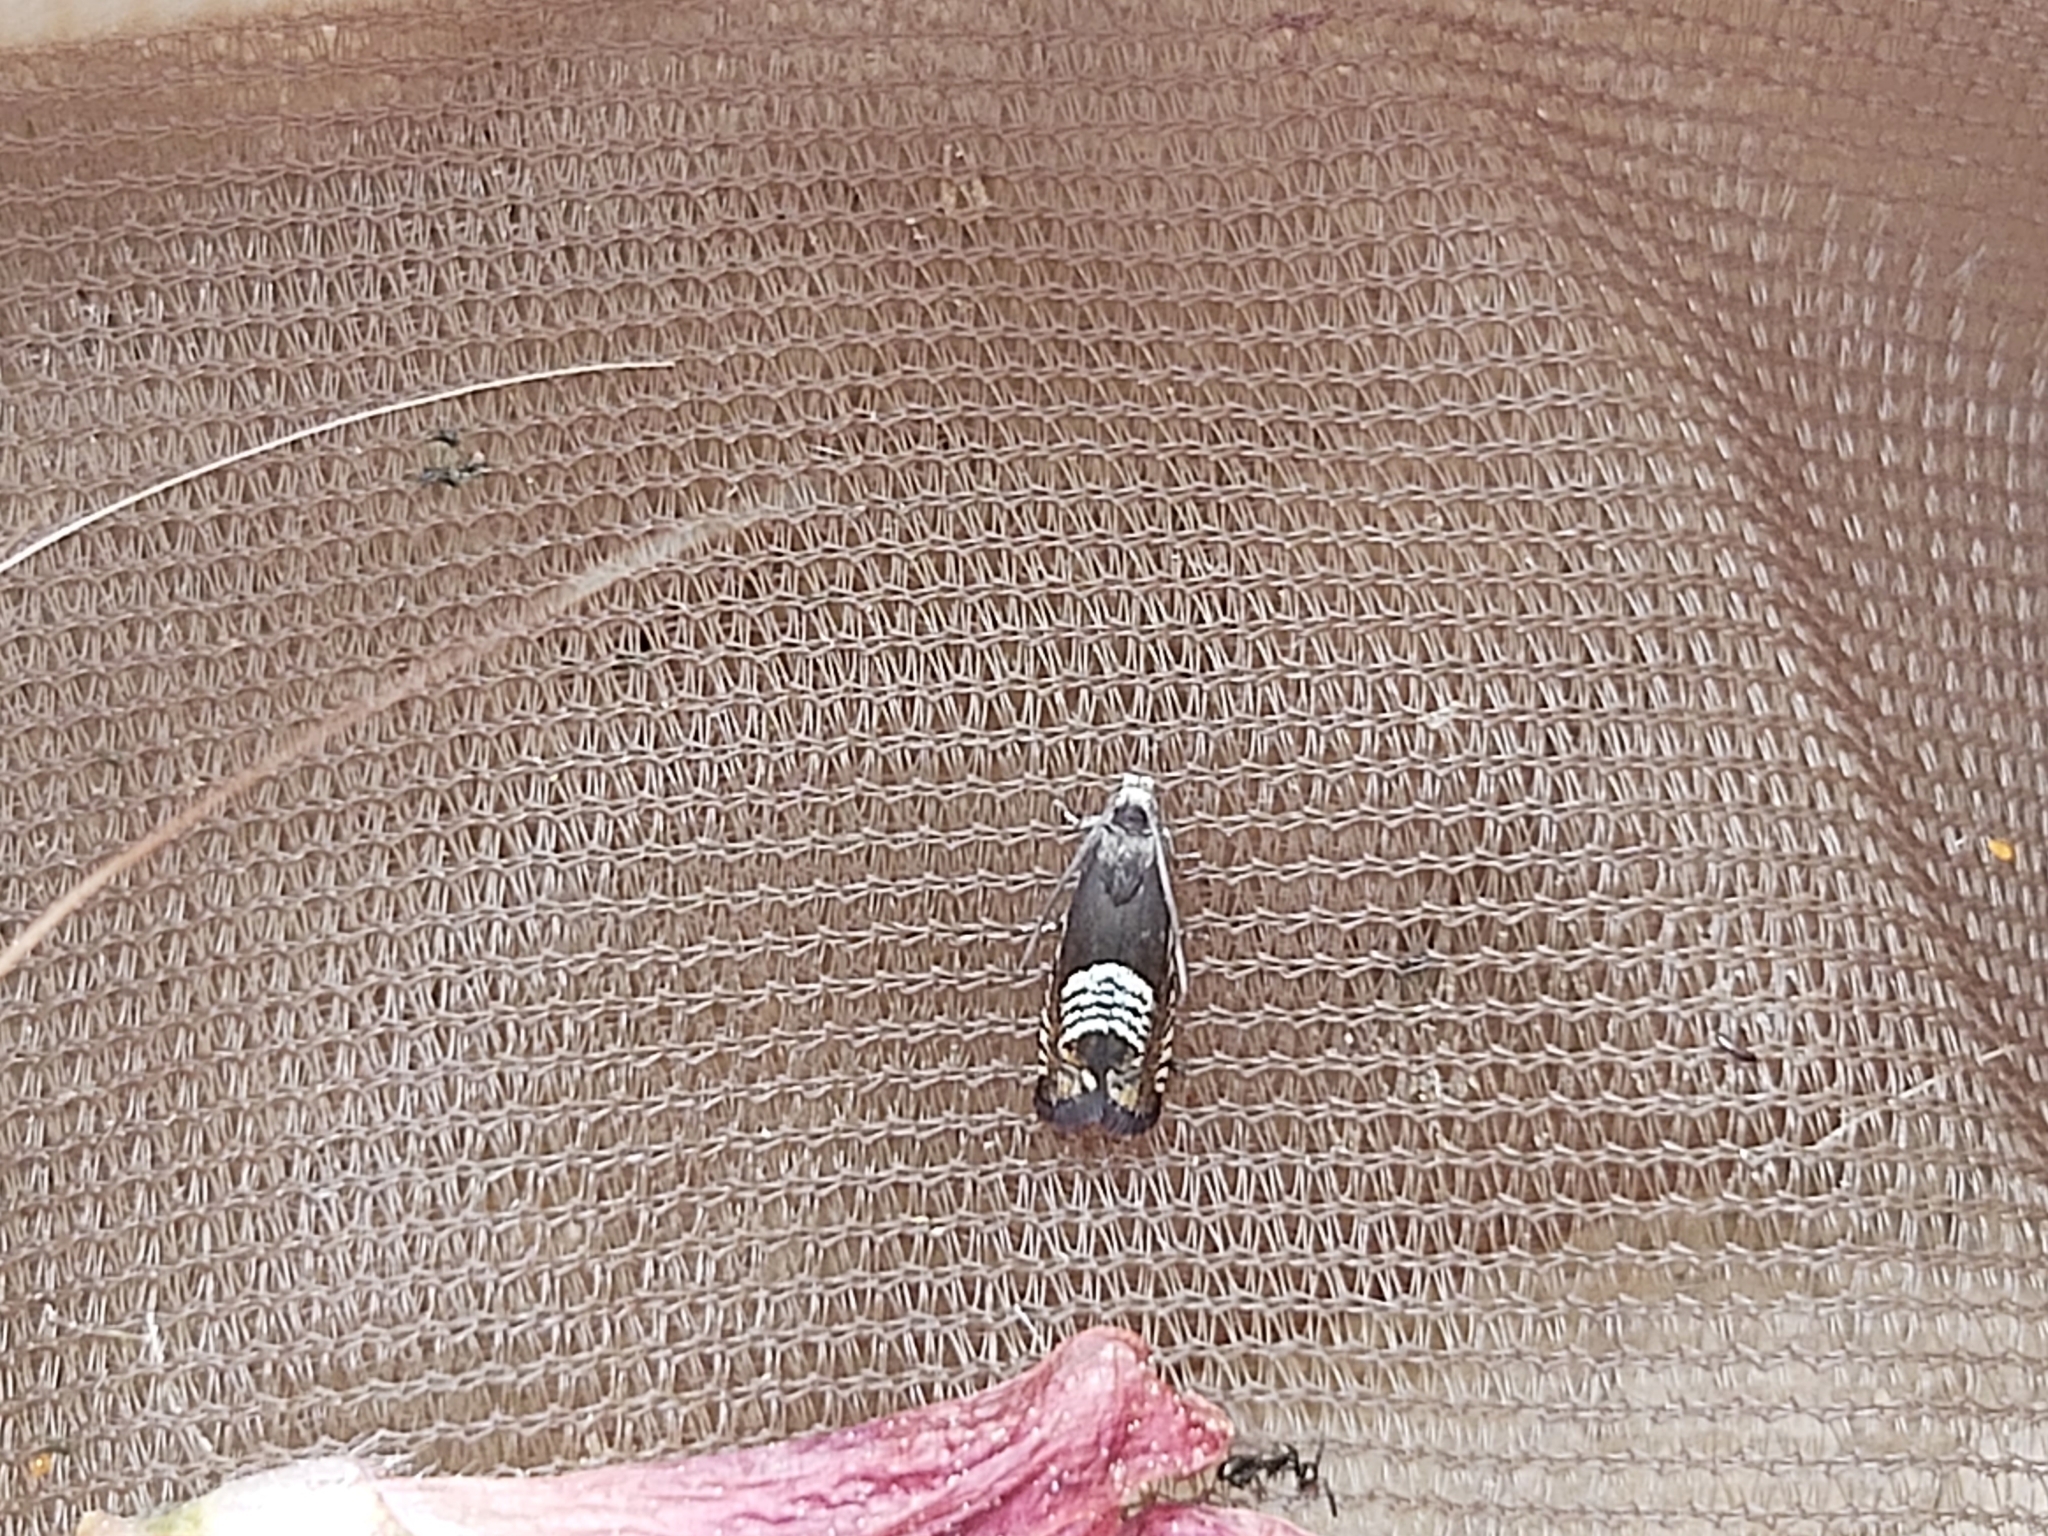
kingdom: Animalia
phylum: Arthropoda
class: Insecta
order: Lepidoptera
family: Tortricidae
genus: Grapholita
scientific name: Grapholita compositella
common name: Triple-stripe piercer
